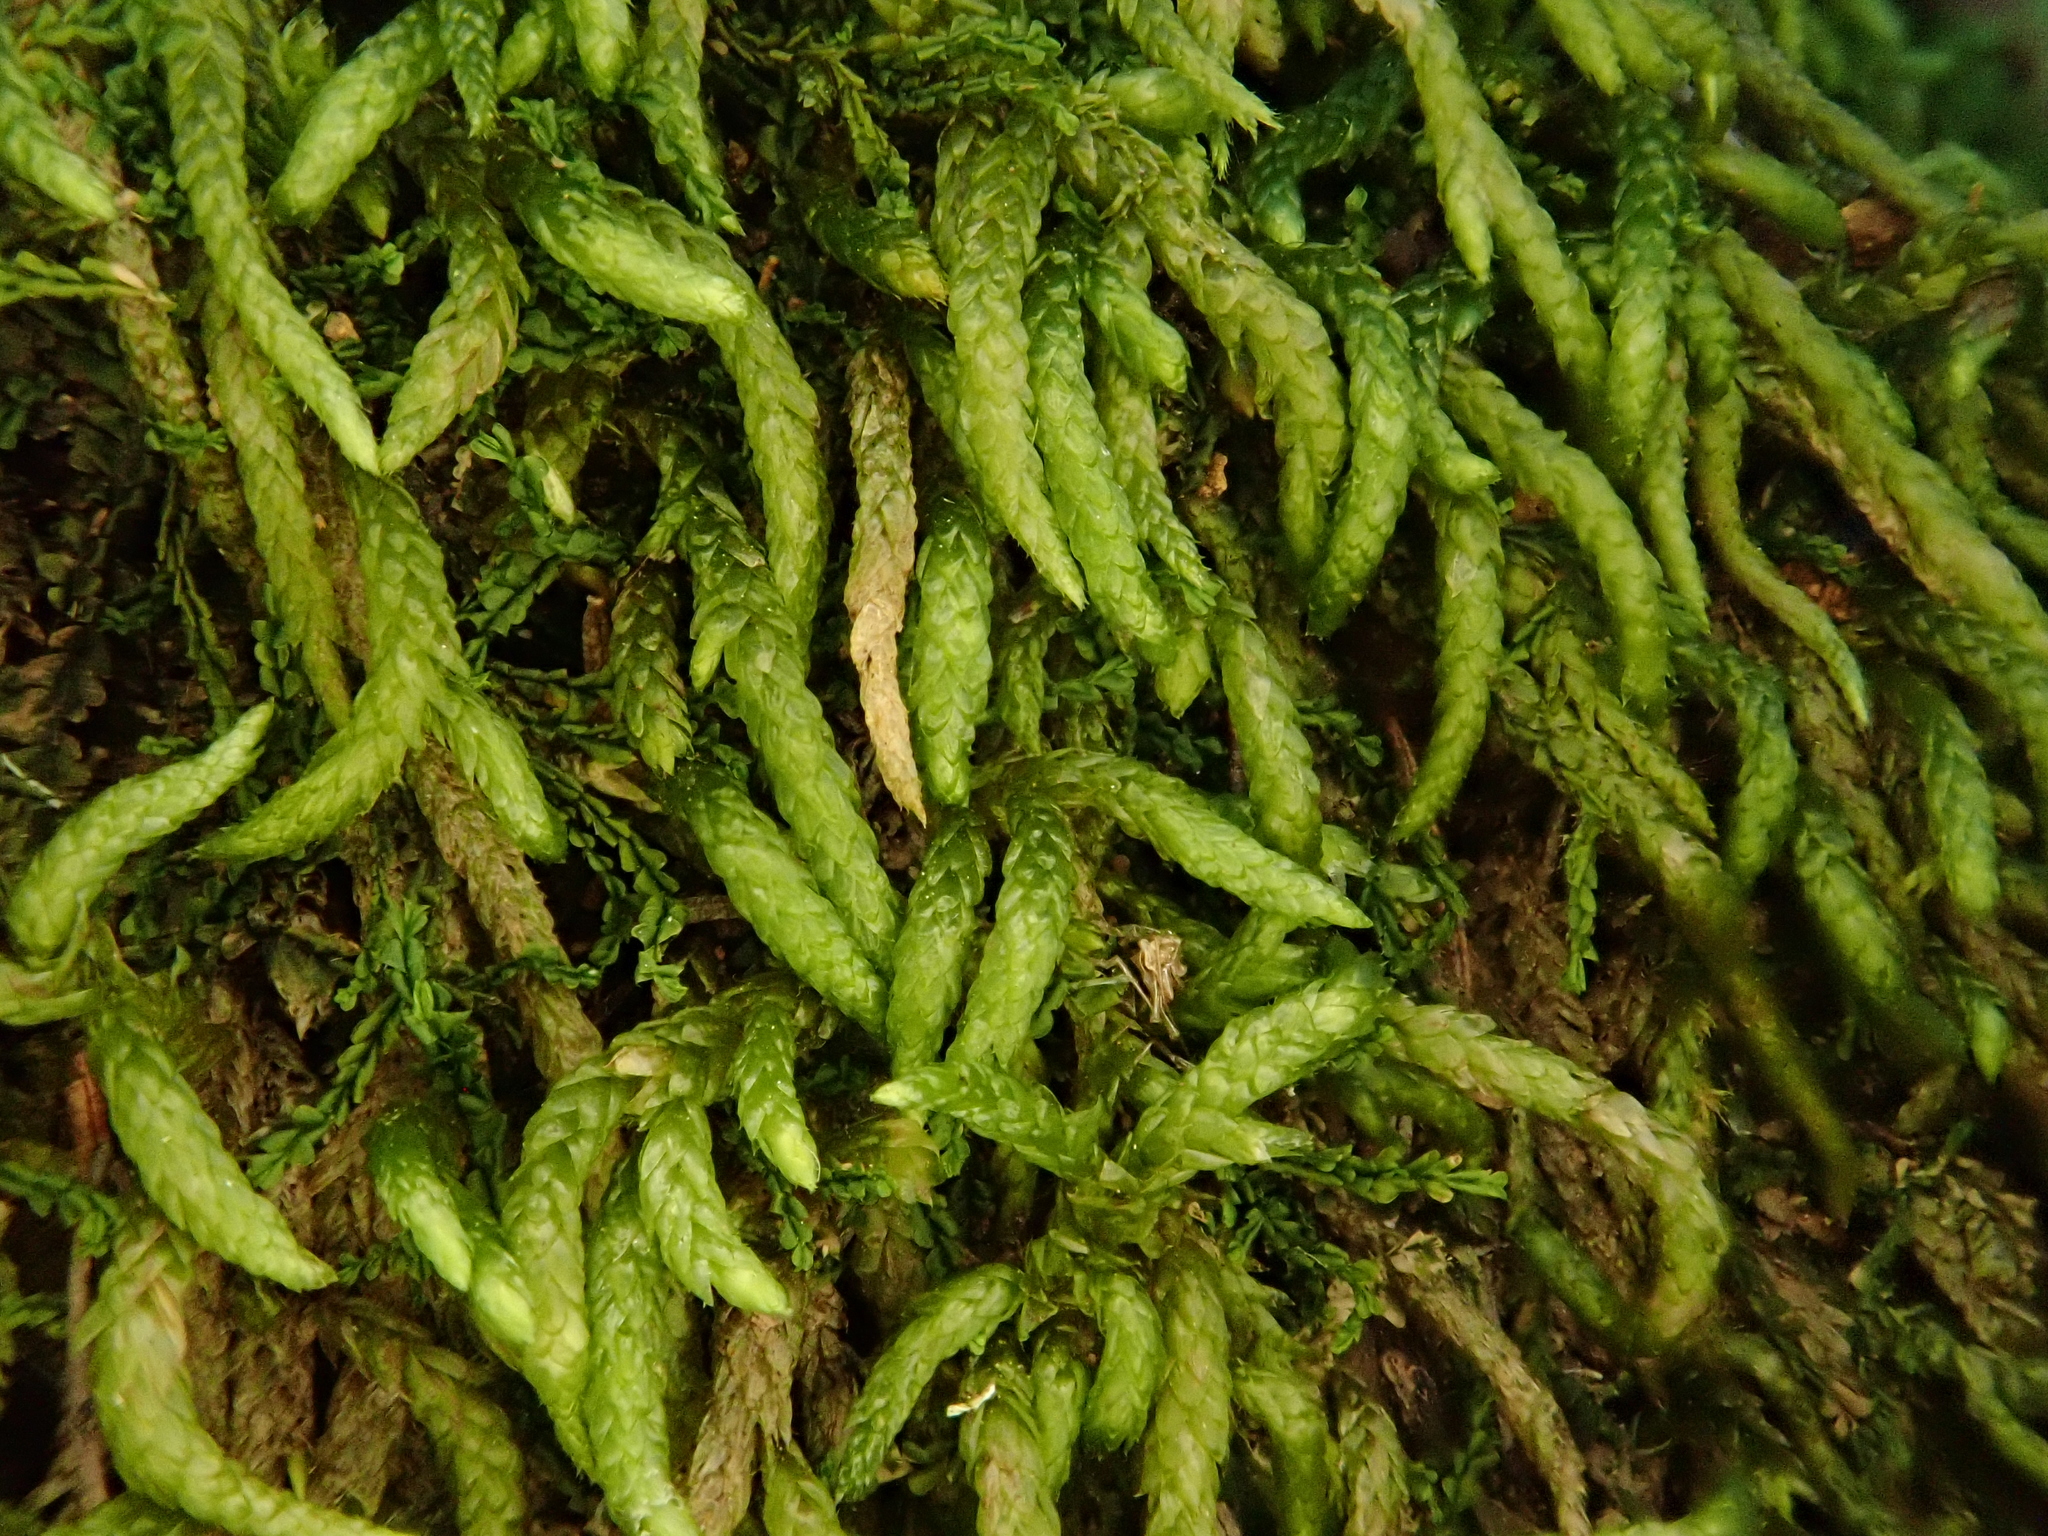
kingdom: Plantae
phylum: Bryophyta
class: Bryopsida
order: Hypnales
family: Brachytheciaceae
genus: Scleropodium
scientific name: Scleropodium touretii
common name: Glass-wort feather-moss
